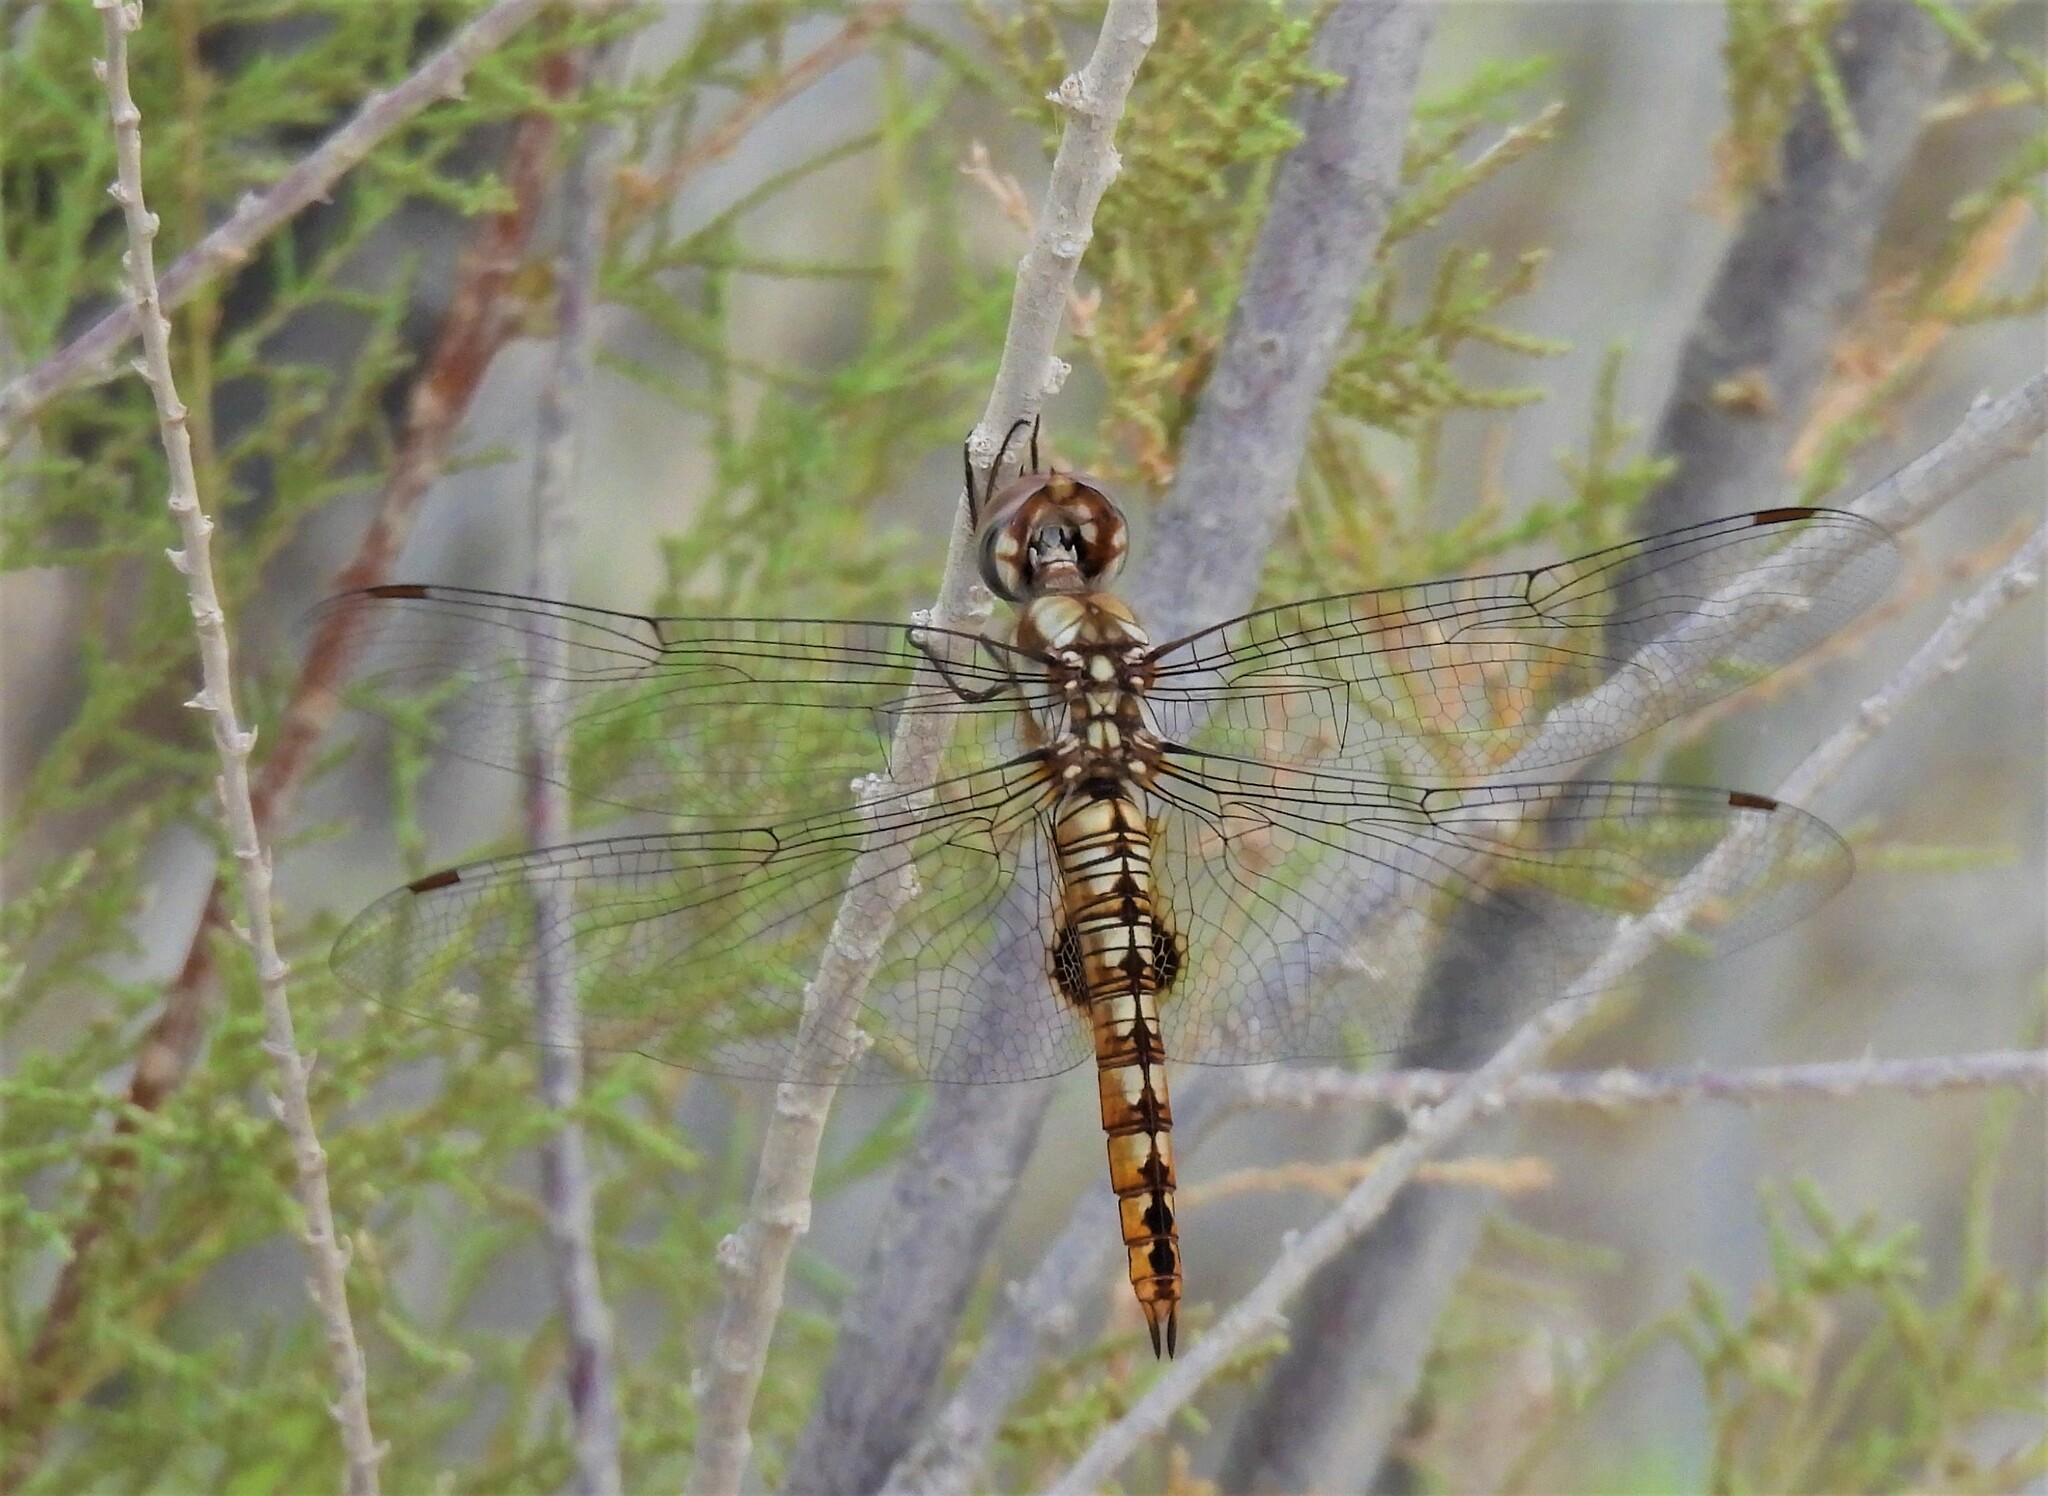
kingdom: Animalia
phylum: Arthropoda
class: Insecta
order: Odonata
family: Libellulidae
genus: Pantala
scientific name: Pantala hymenaea
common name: Spot-winged glider
